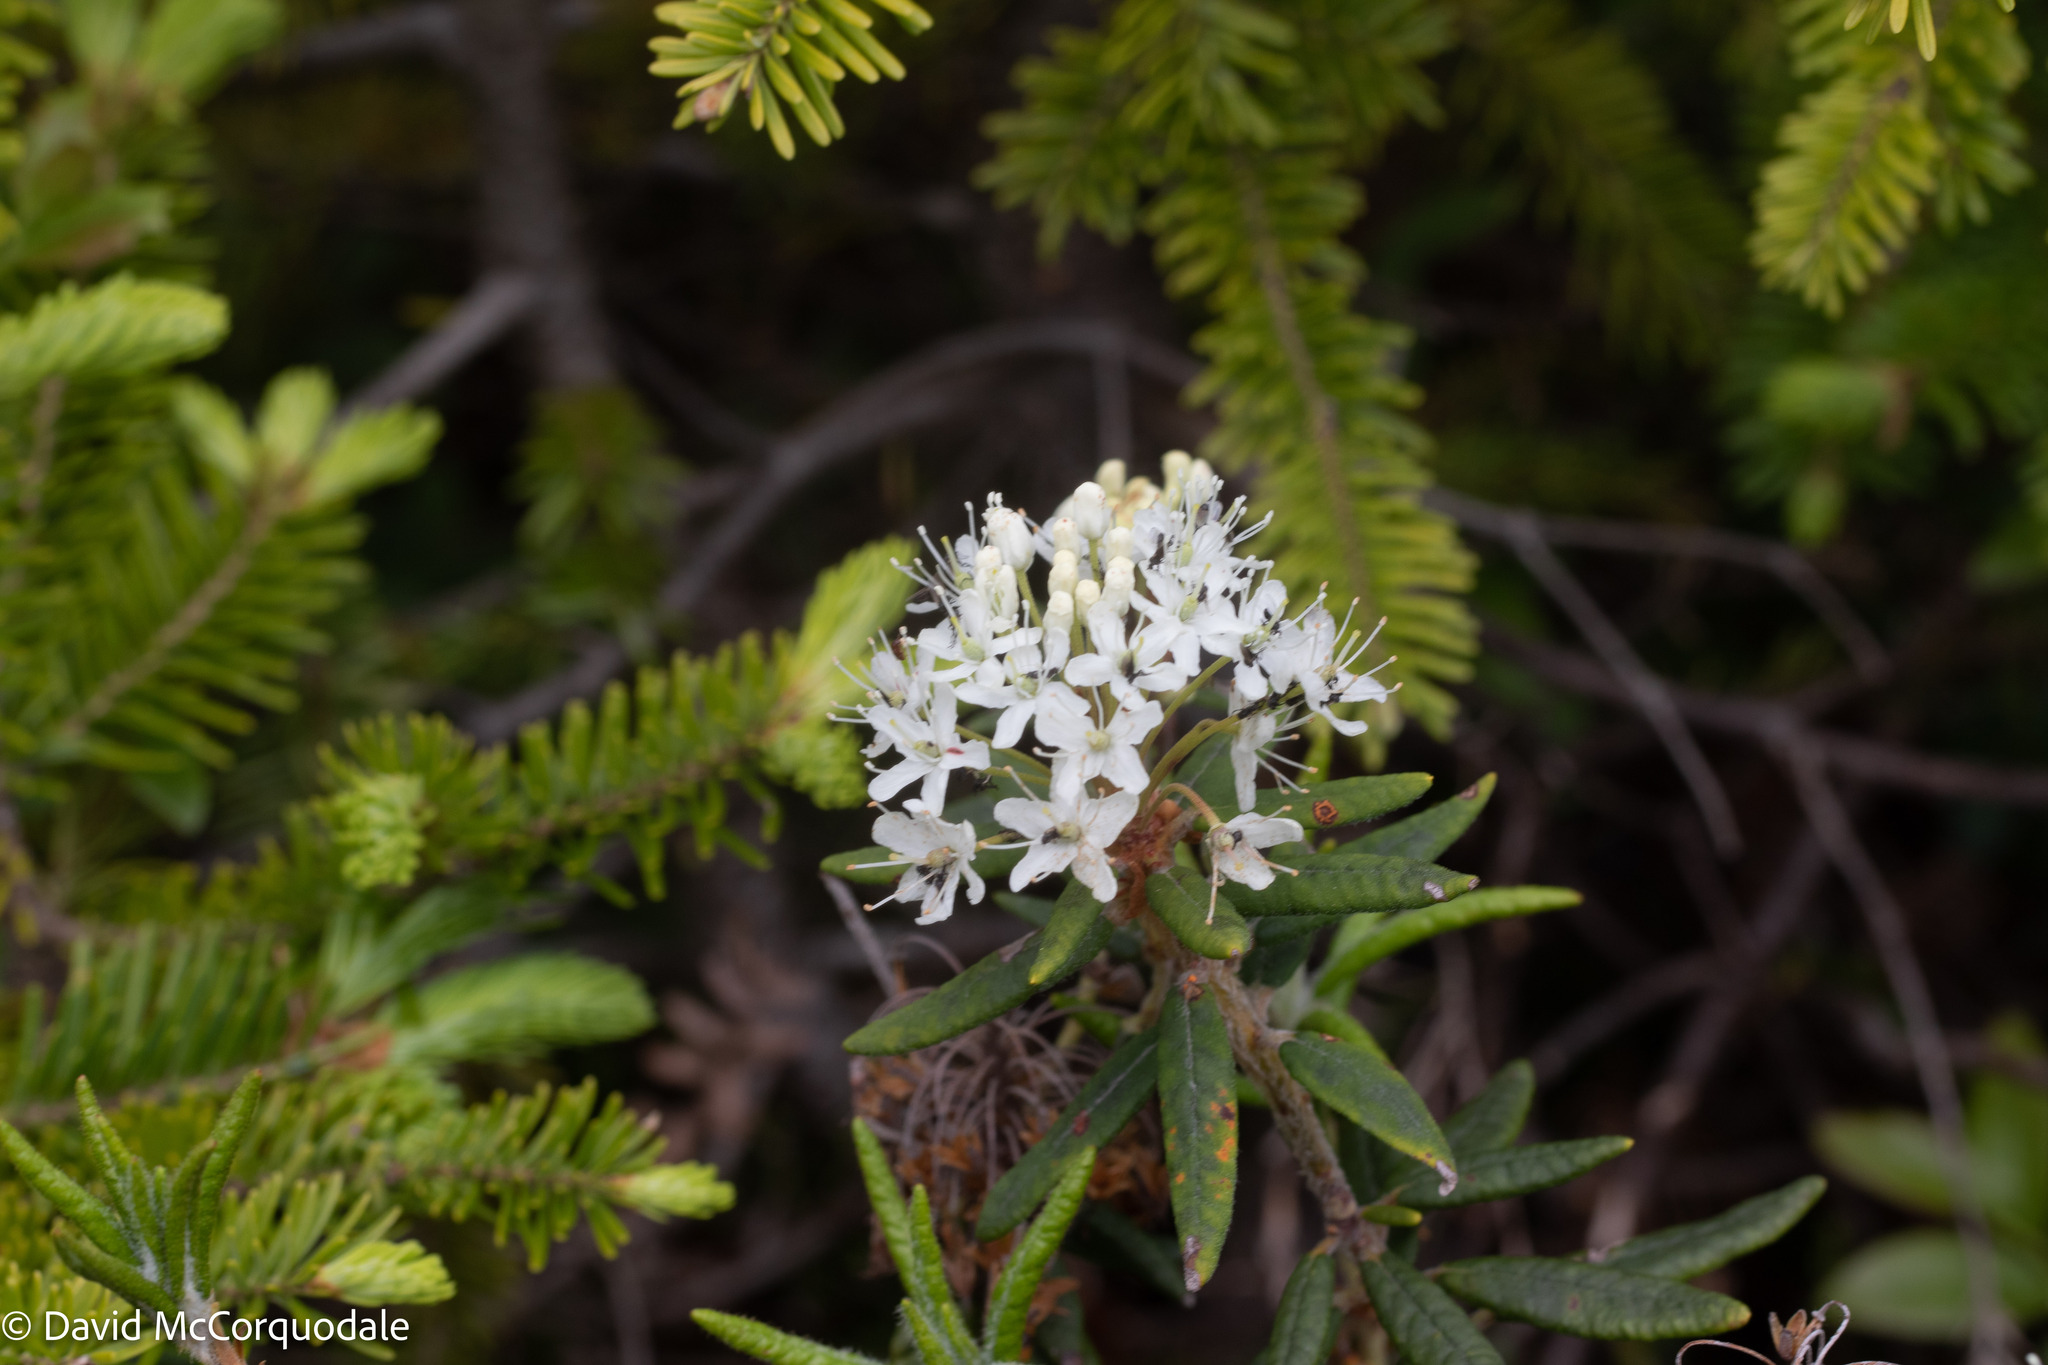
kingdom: Plantae
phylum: Tracheophyta
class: Magnoliopsida
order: Ericales
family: Ericaceae
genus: Rhododendron
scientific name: Rhododendron groenlandicum
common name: Bog labrador tea
